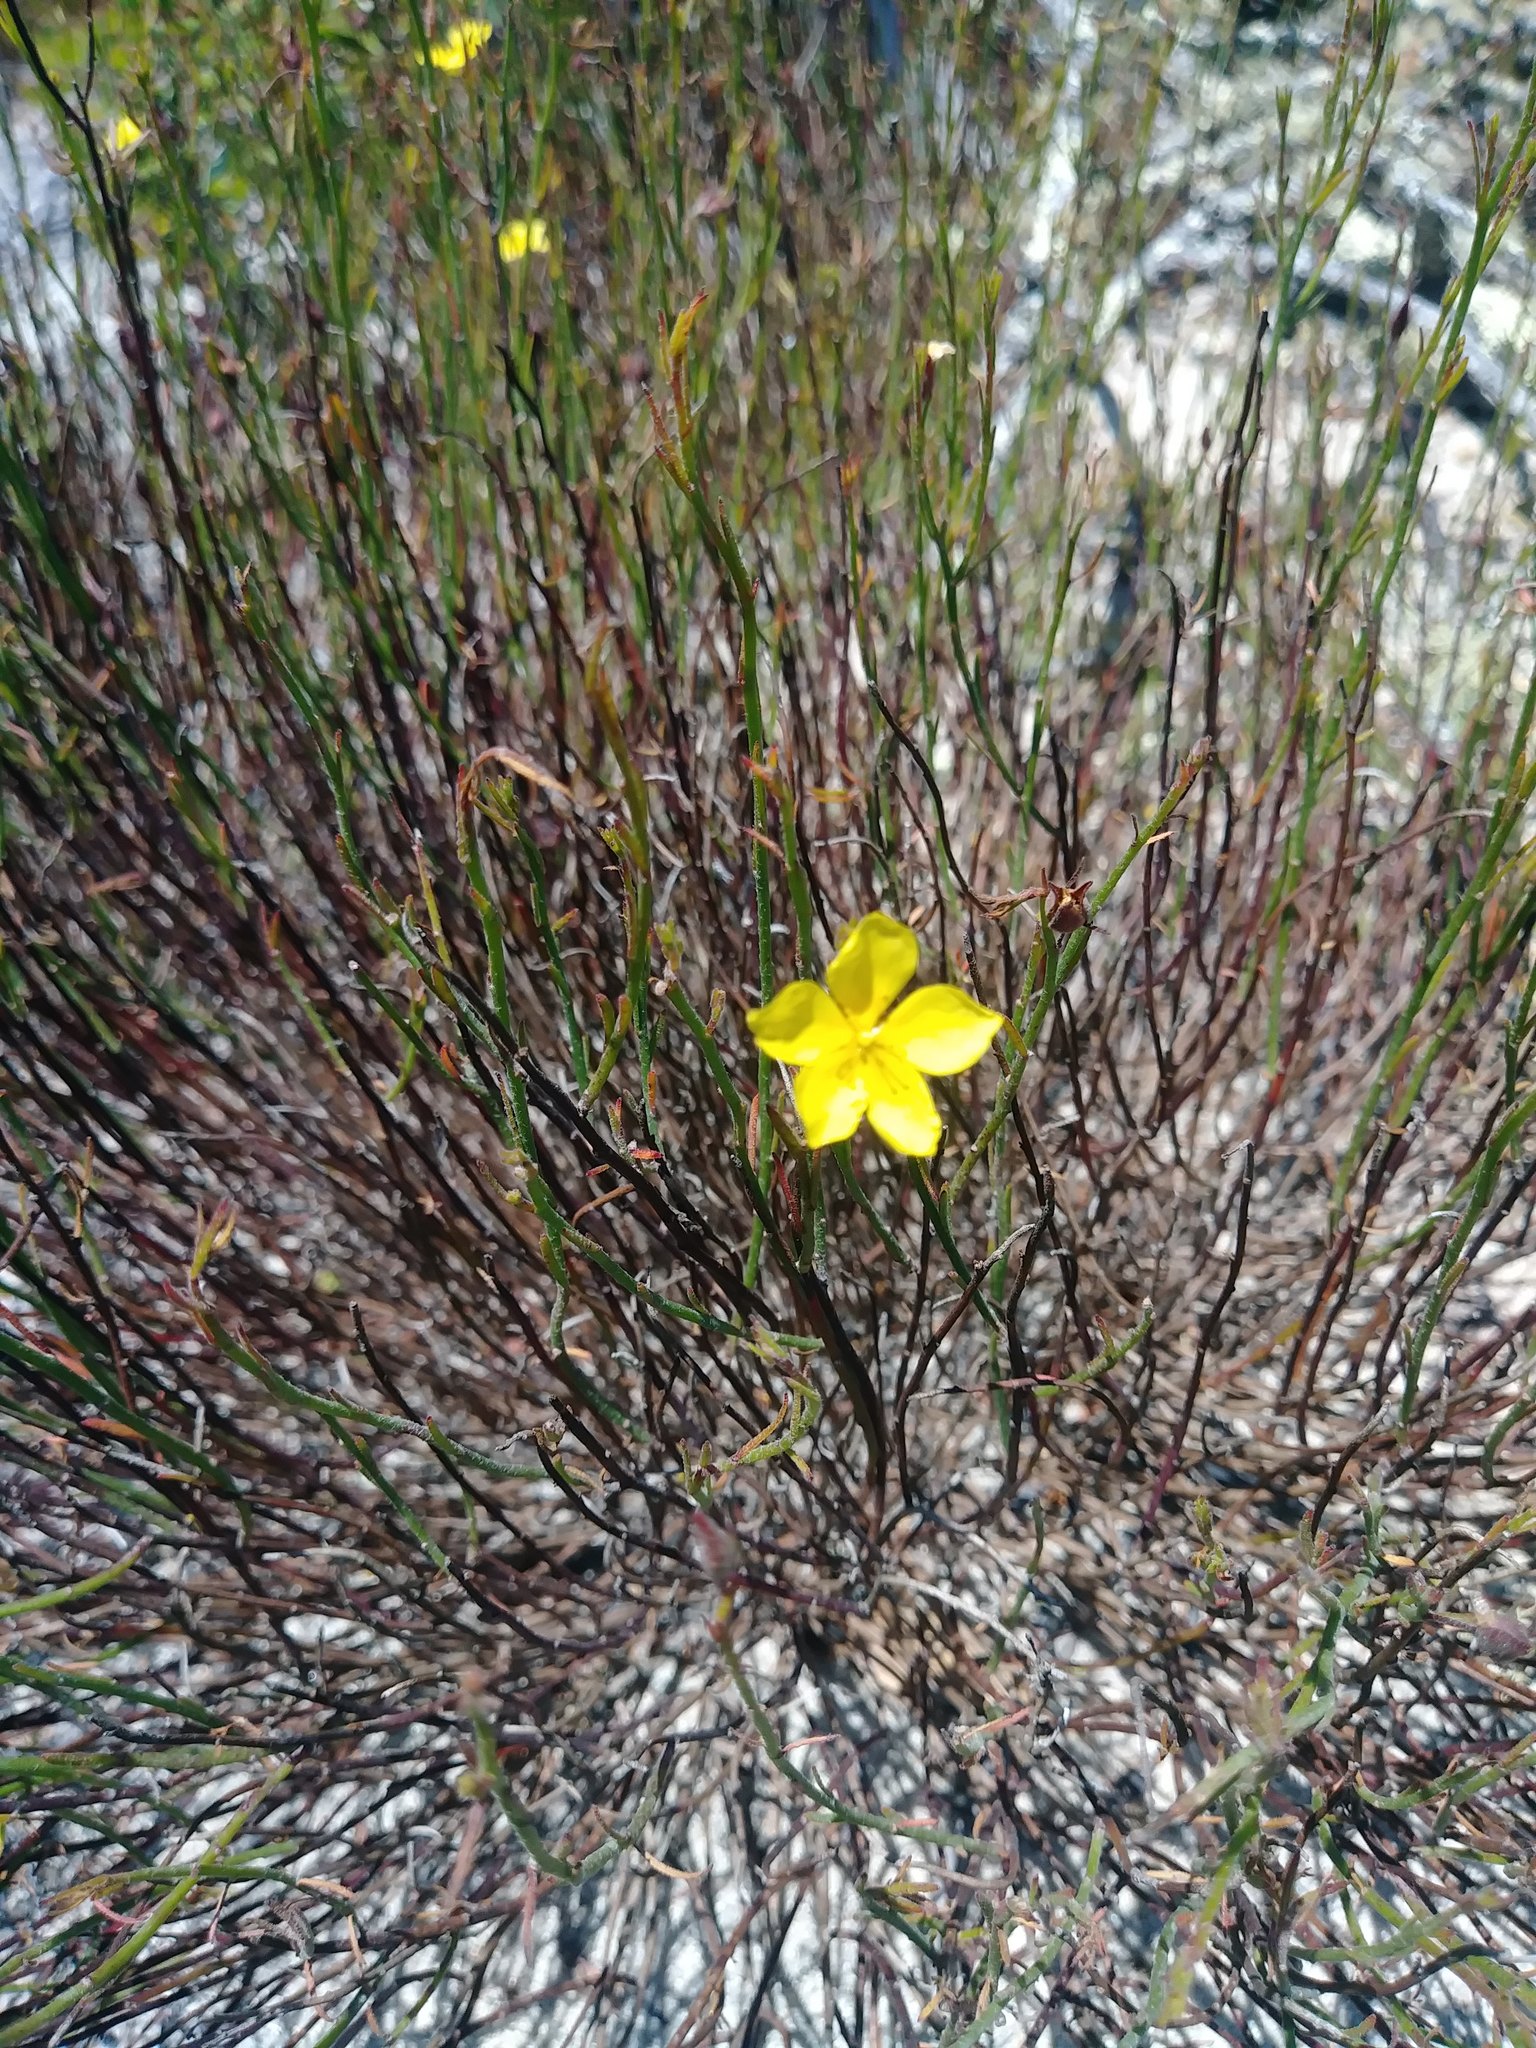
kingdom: Plantae
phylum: Tracheophyta
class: Magnoliopsida
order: Malvales
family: Cistaceae
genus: Crocanthemum
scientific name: Crocanthemum scoparium
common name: Broom-rose
